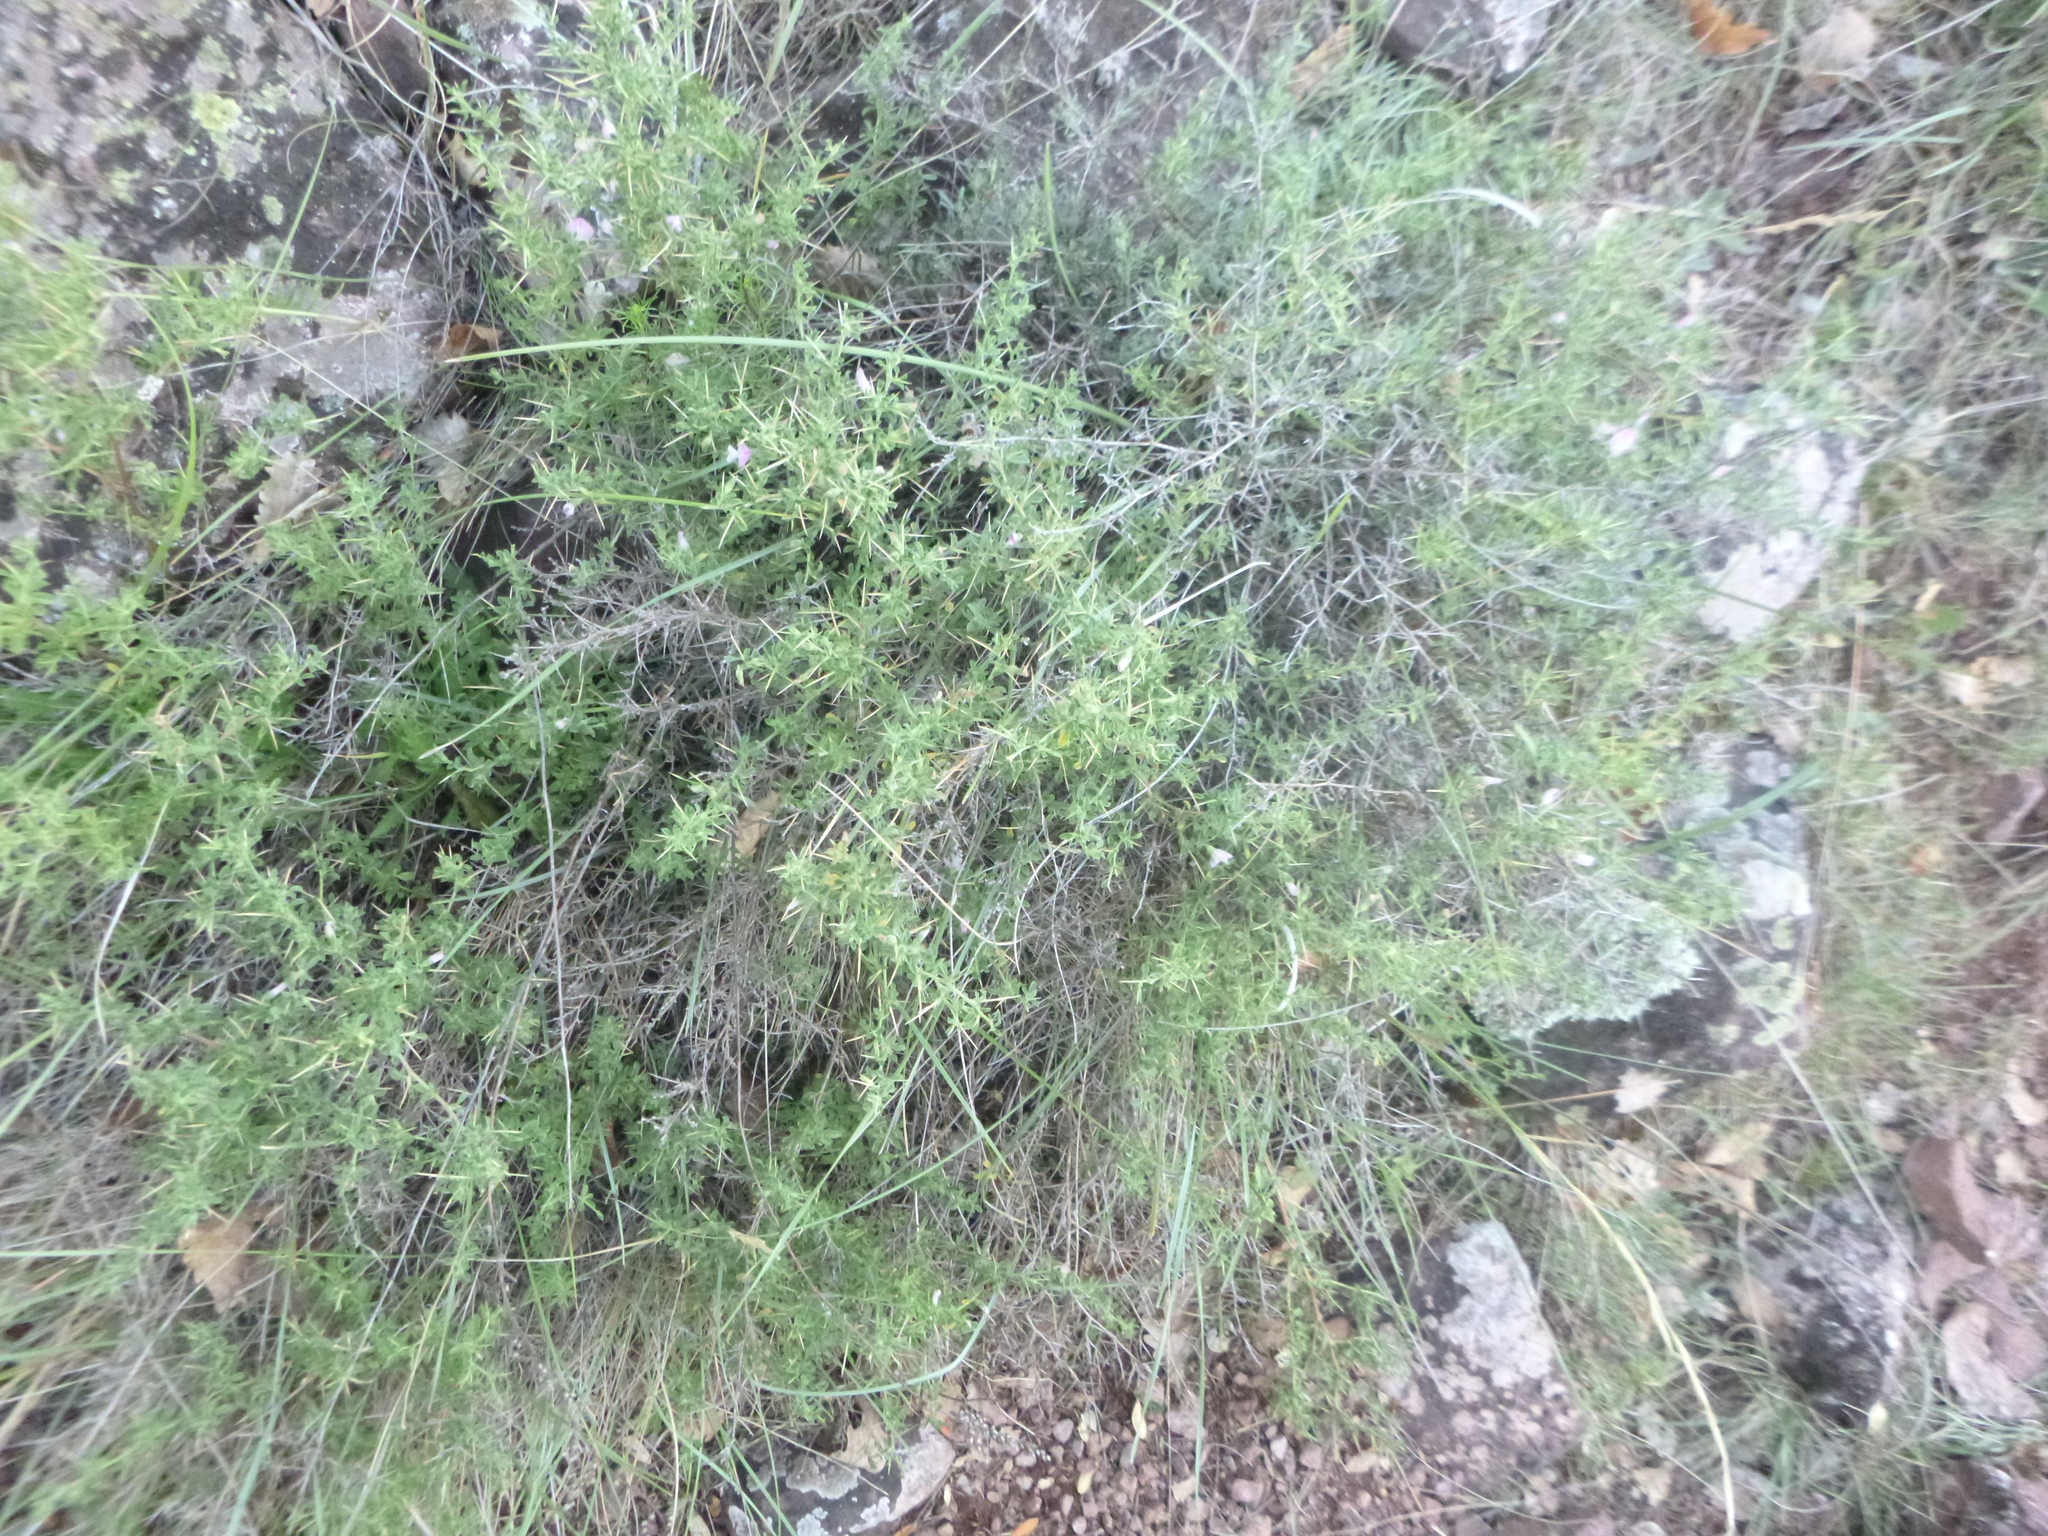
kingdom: Plantae
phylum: Tracheophyta
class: Magnoliopsida
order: Fabales
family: Fabaceae
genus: Ononis
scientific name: Ononis spinosa
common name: Spiny restharrow
